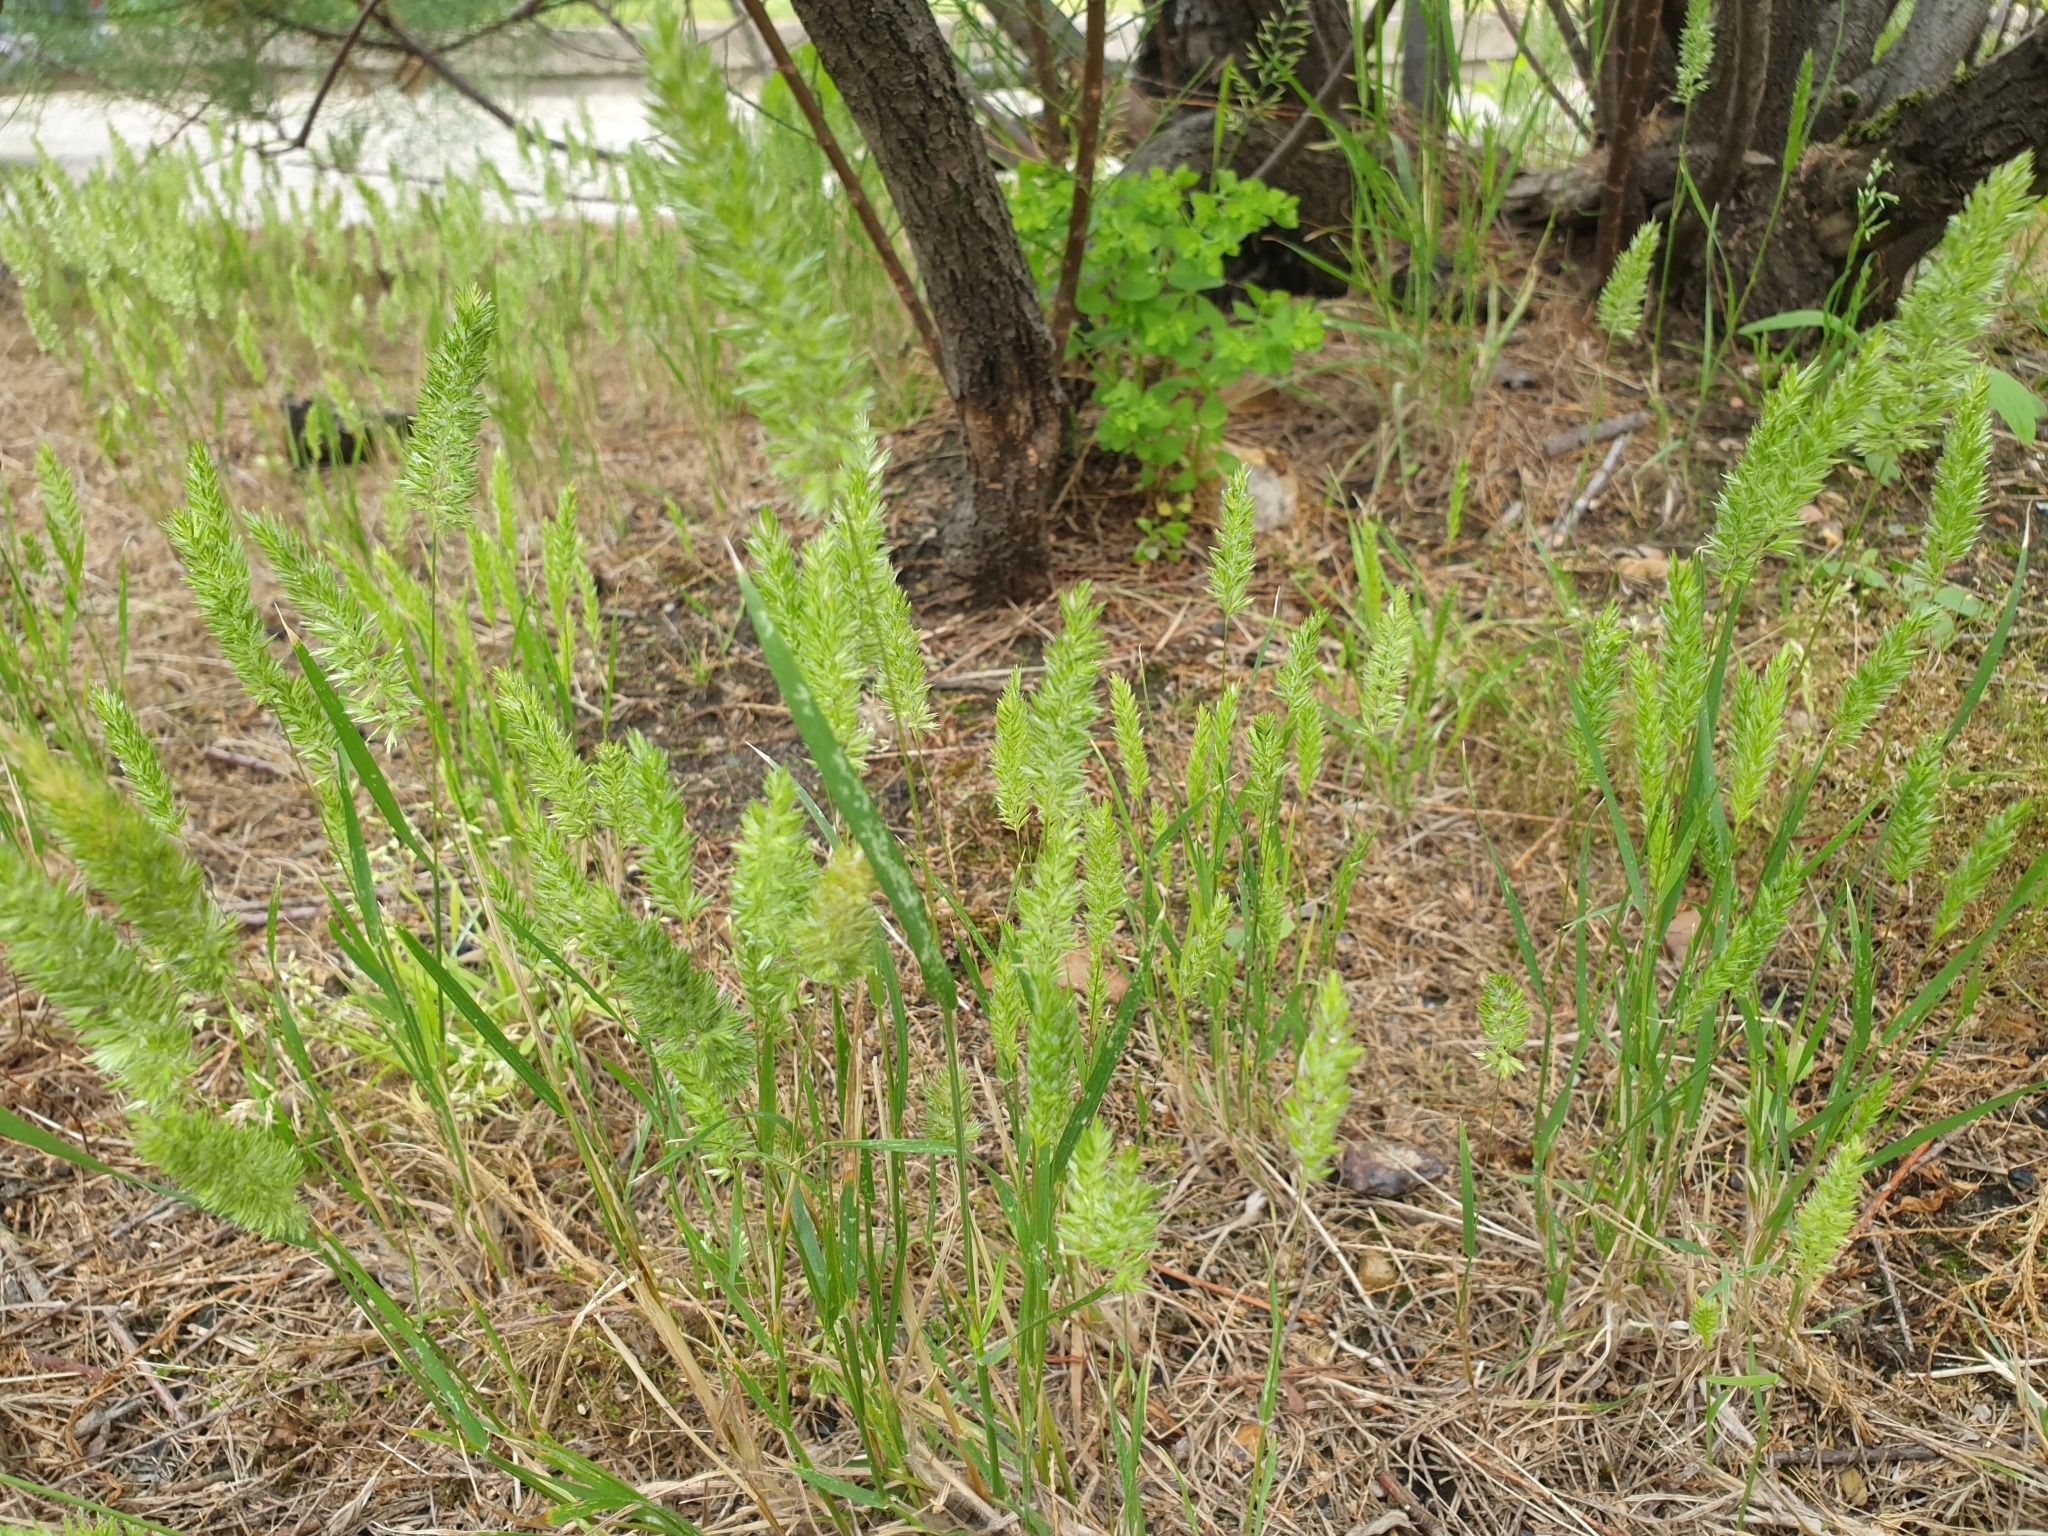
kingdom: Plantae
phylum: Tracheophyta
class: Liliopsida
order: Poales
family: Poaceae
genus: Rostraria
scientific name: Rostraria cristata
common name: Mediterranean hair-grass
